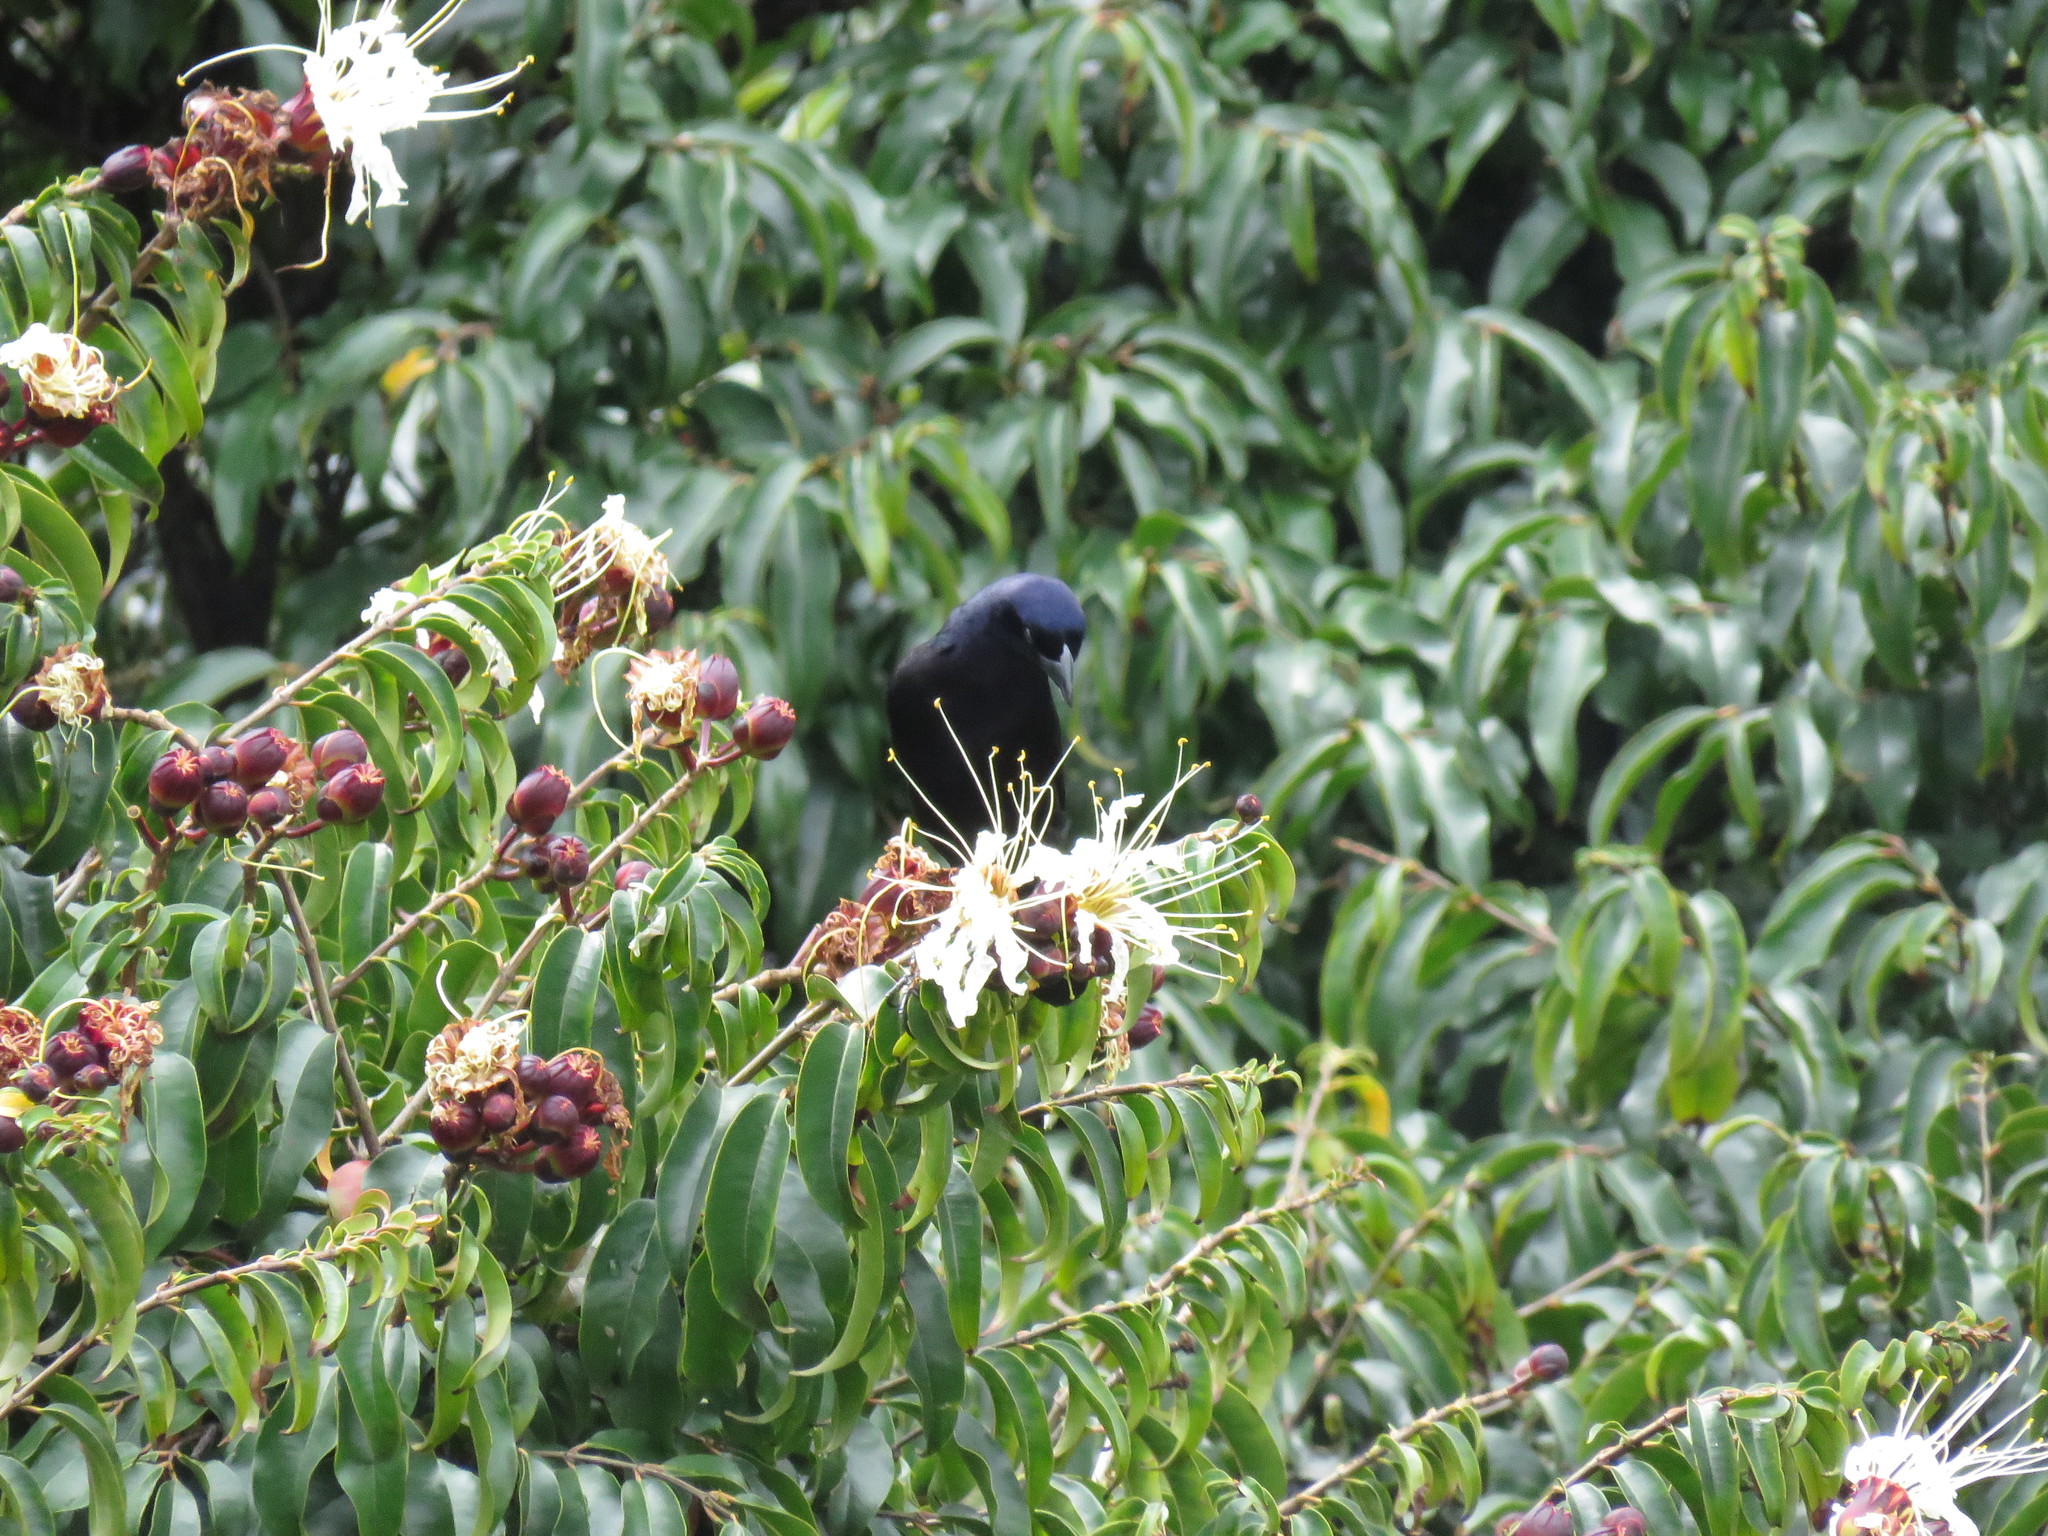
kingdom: Animalia
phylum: Chordata
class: Aves
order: Passeriformes
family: Icteridae
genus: Molothrus
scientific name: Molothrus bonariensis
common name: Shiny cowbird
